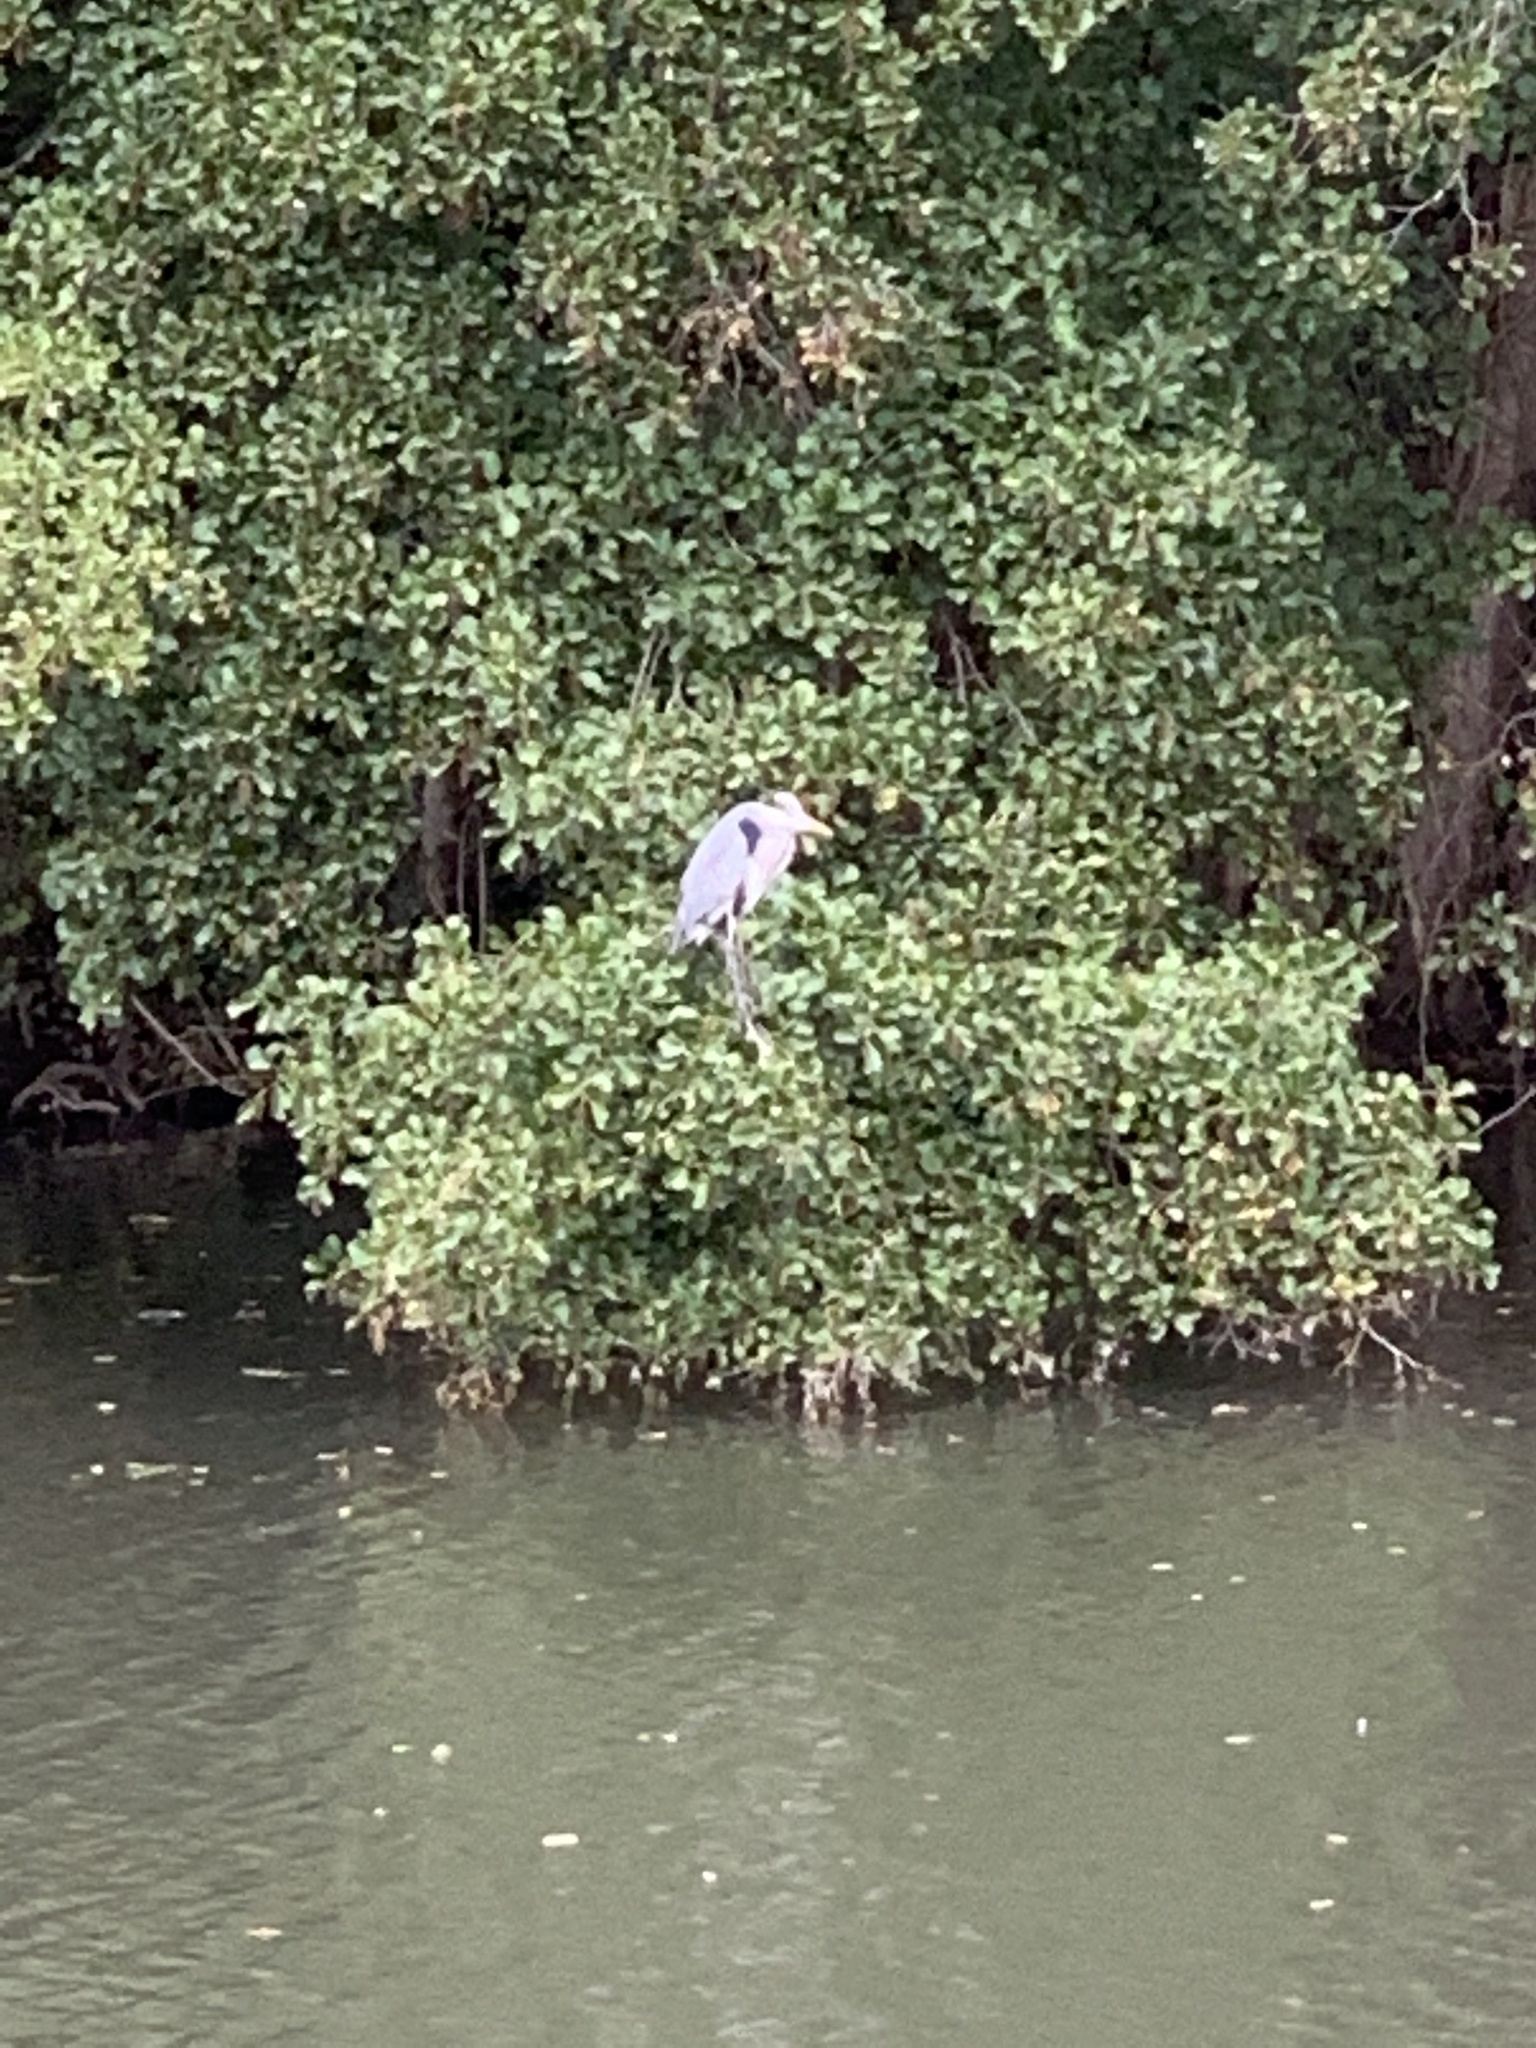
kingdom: Animalia
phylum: Chordata
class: Aves
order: Pelecaniformes
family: Ardeidae
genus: Ardea
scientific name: Ardea cinerea
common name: Grey heron
